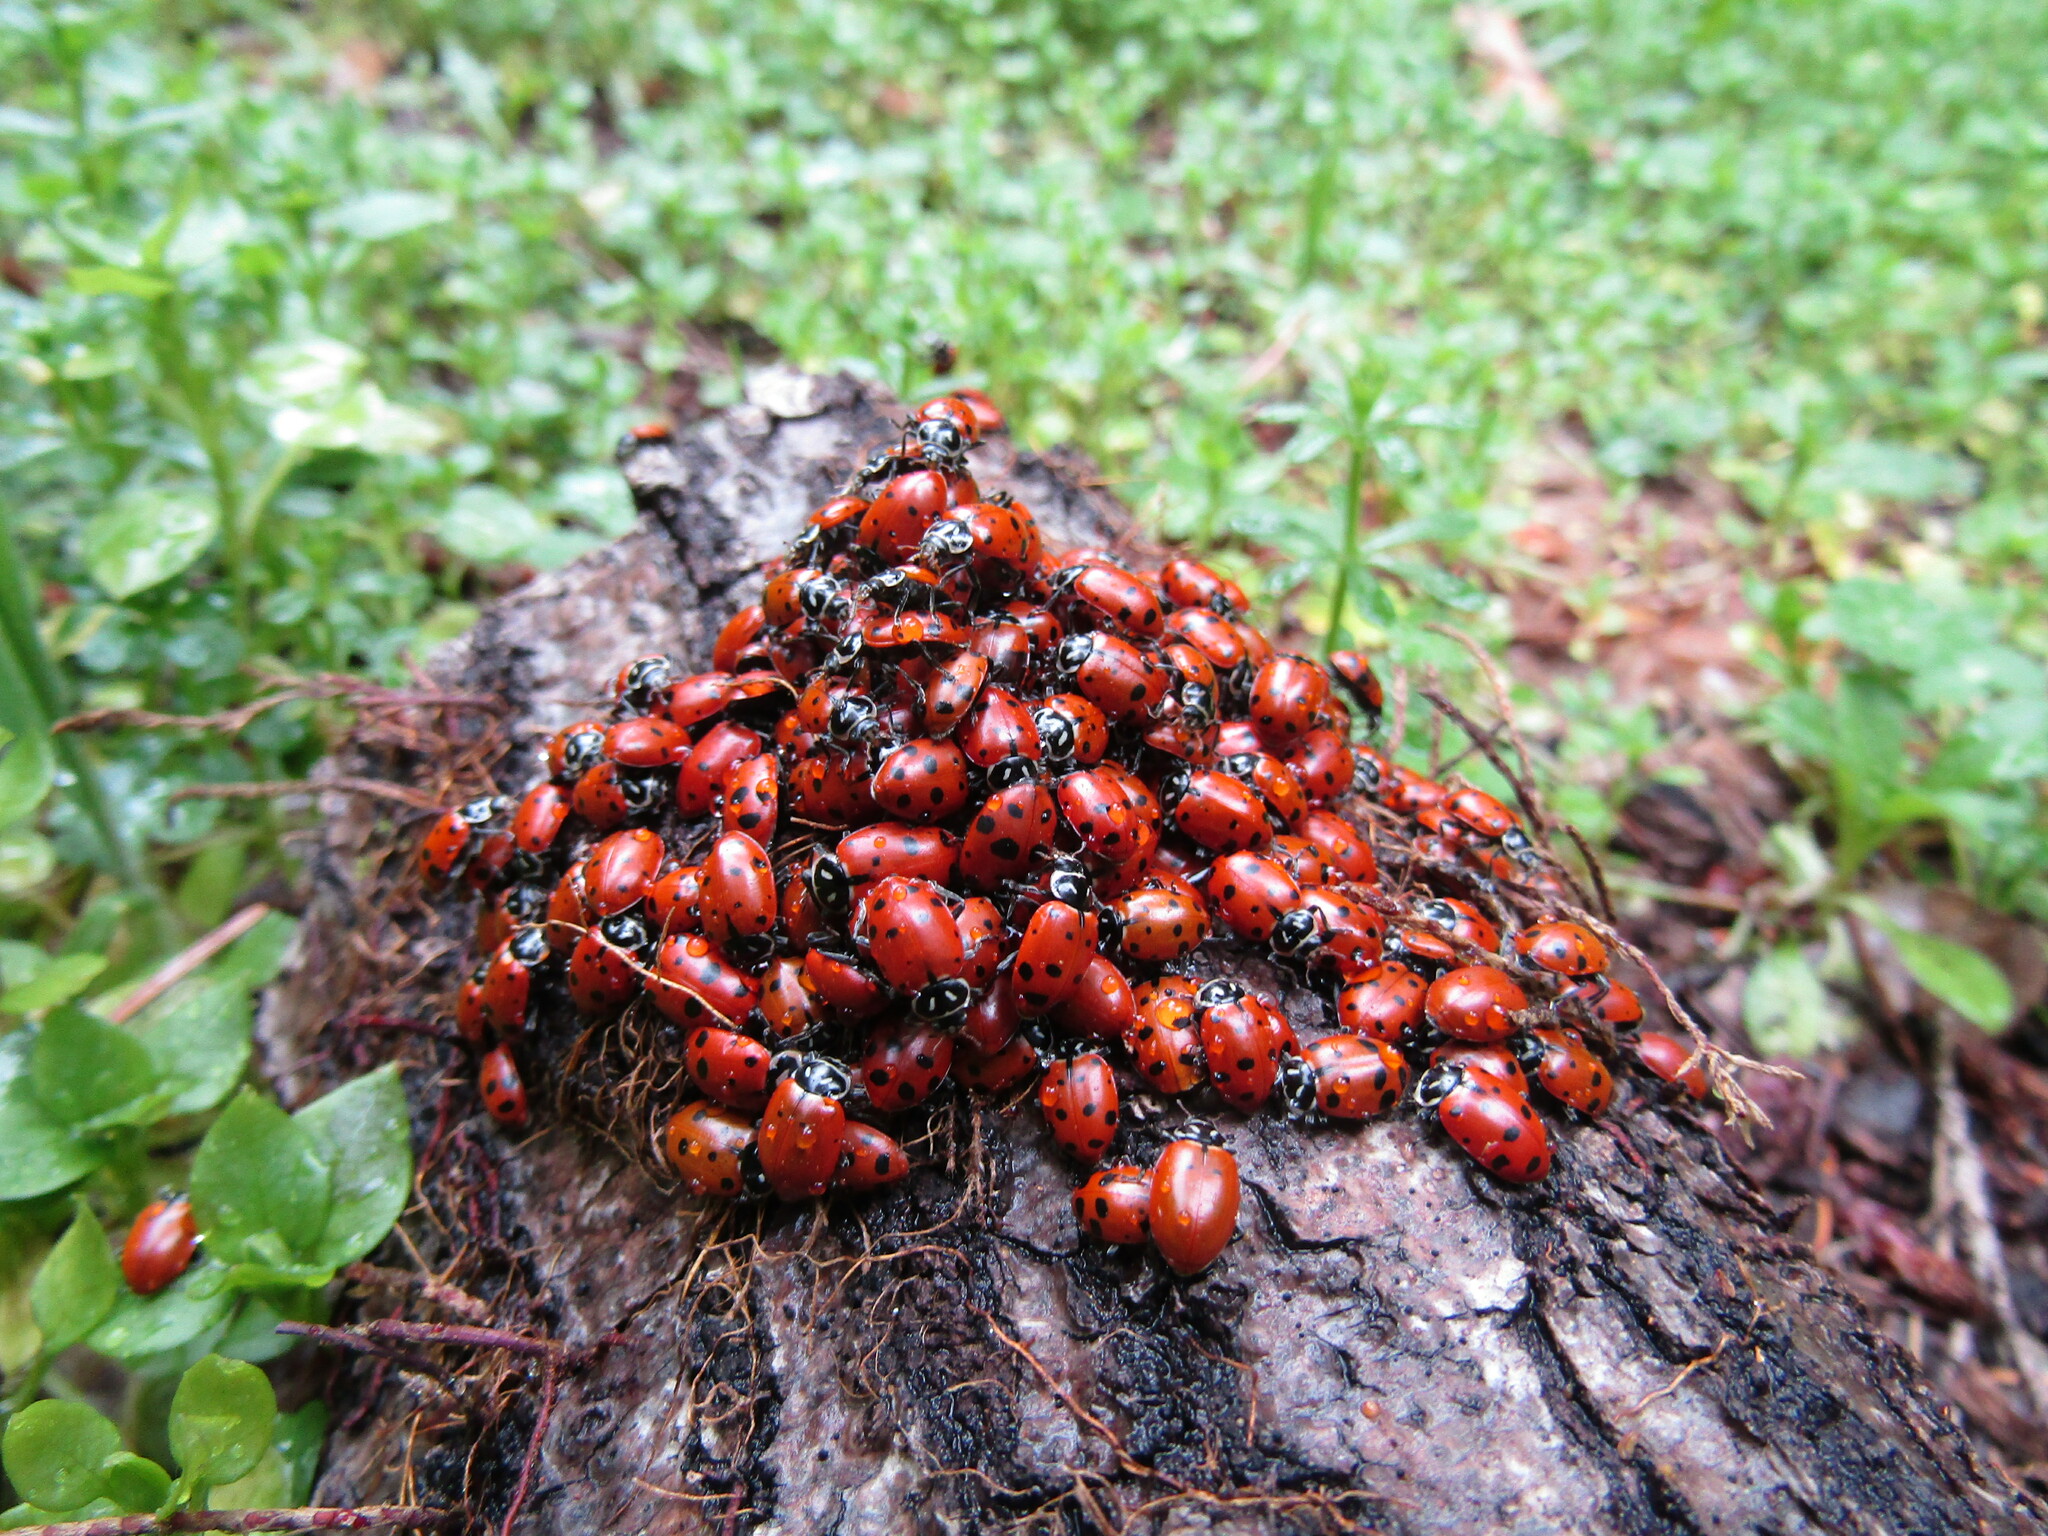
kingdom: Animalia
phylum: Arthropoda
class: Insecta
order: Coleoptera
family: Coccinellidae
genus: Hippodamia
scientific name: Hippodamia convergens
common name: Convergent lady beetle
